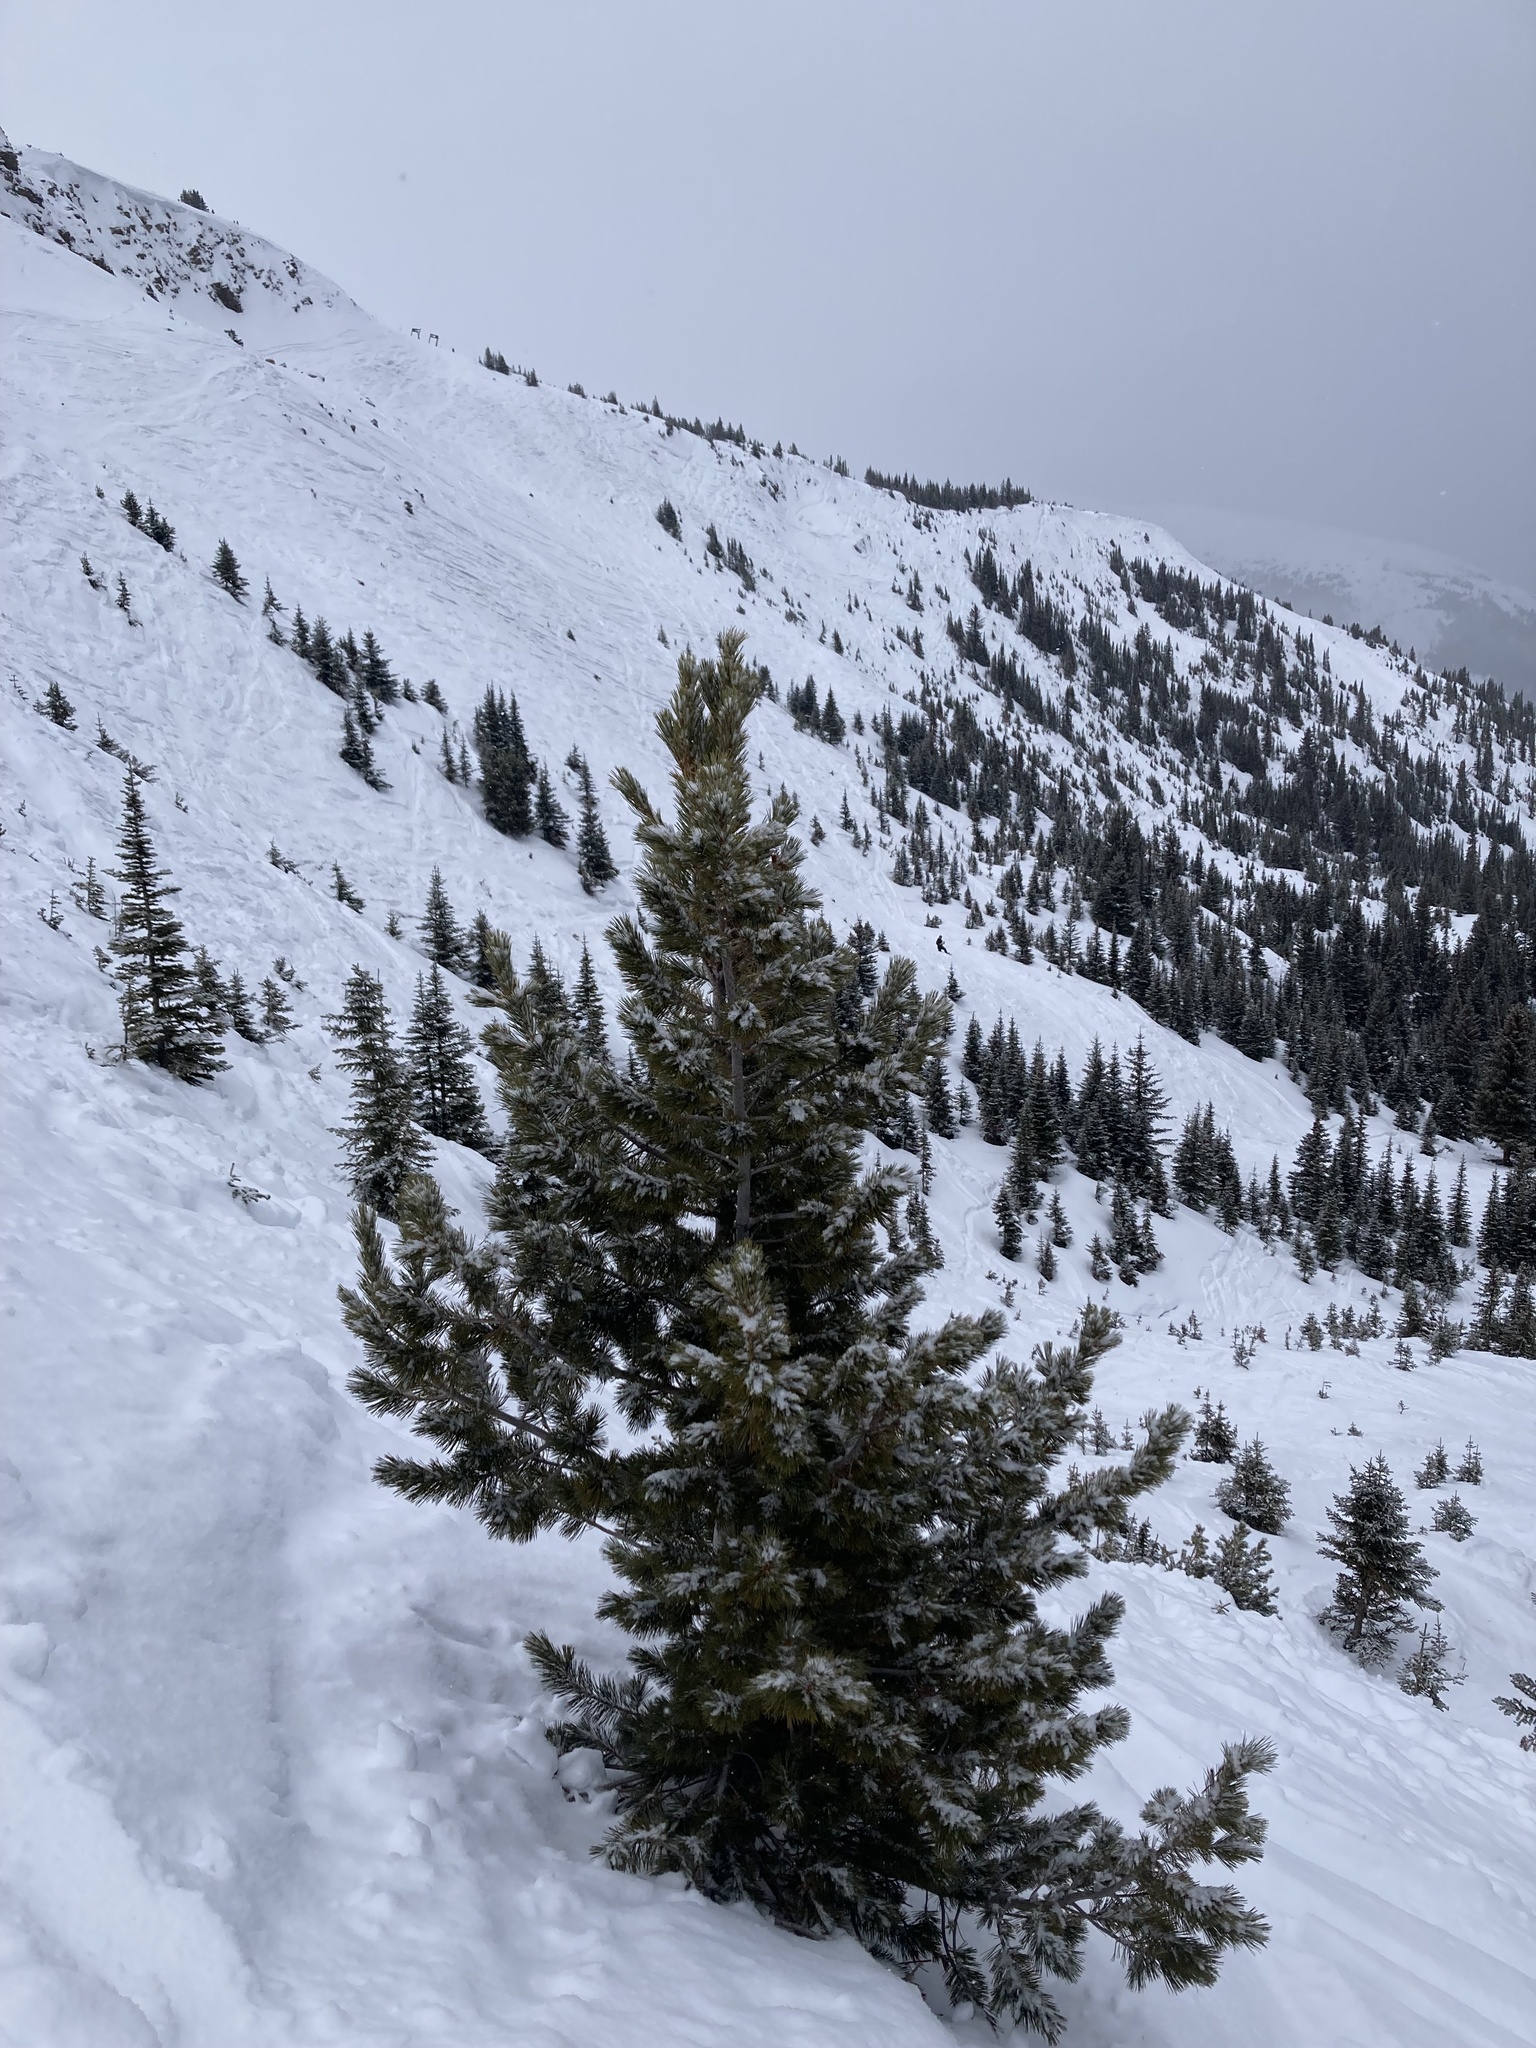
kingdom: Plantae
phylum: Tracheophyta
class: Pinopsida
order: Pinales
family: Pinaceae
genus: Pinus
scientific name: Pinus albicaulis
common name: Whitebark pine
